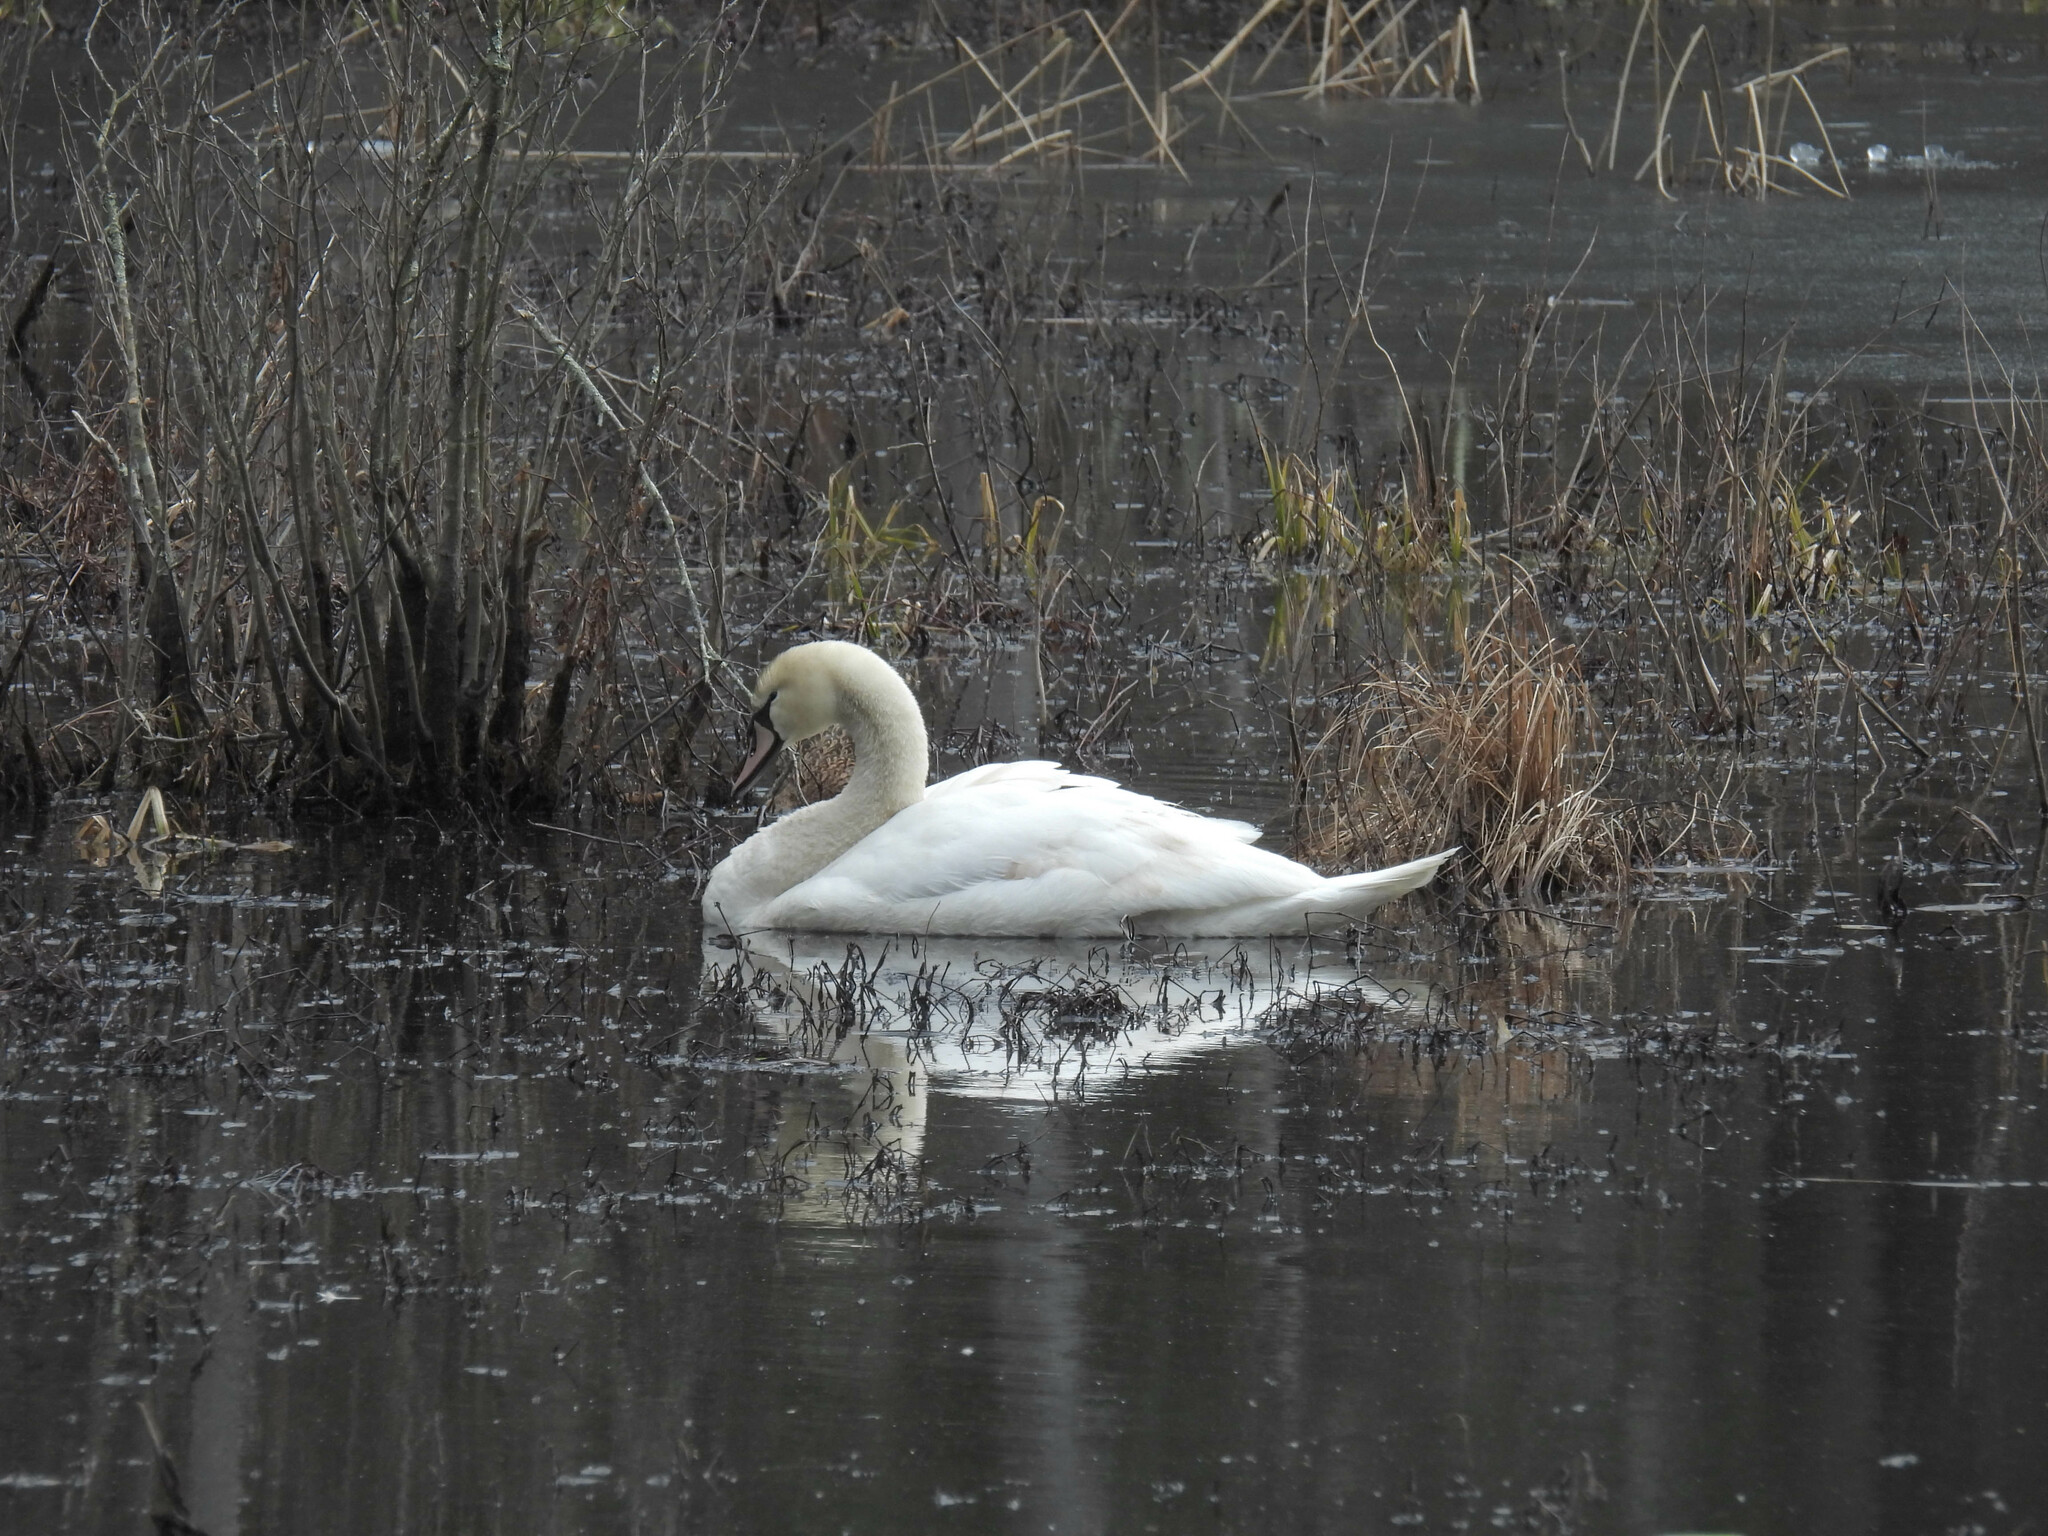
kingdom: Animalia
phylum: Chordata
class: Aves
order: Anseriformes
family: Anatidae
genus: Cygnus
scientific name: Cygnus olor
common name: Mute swan
